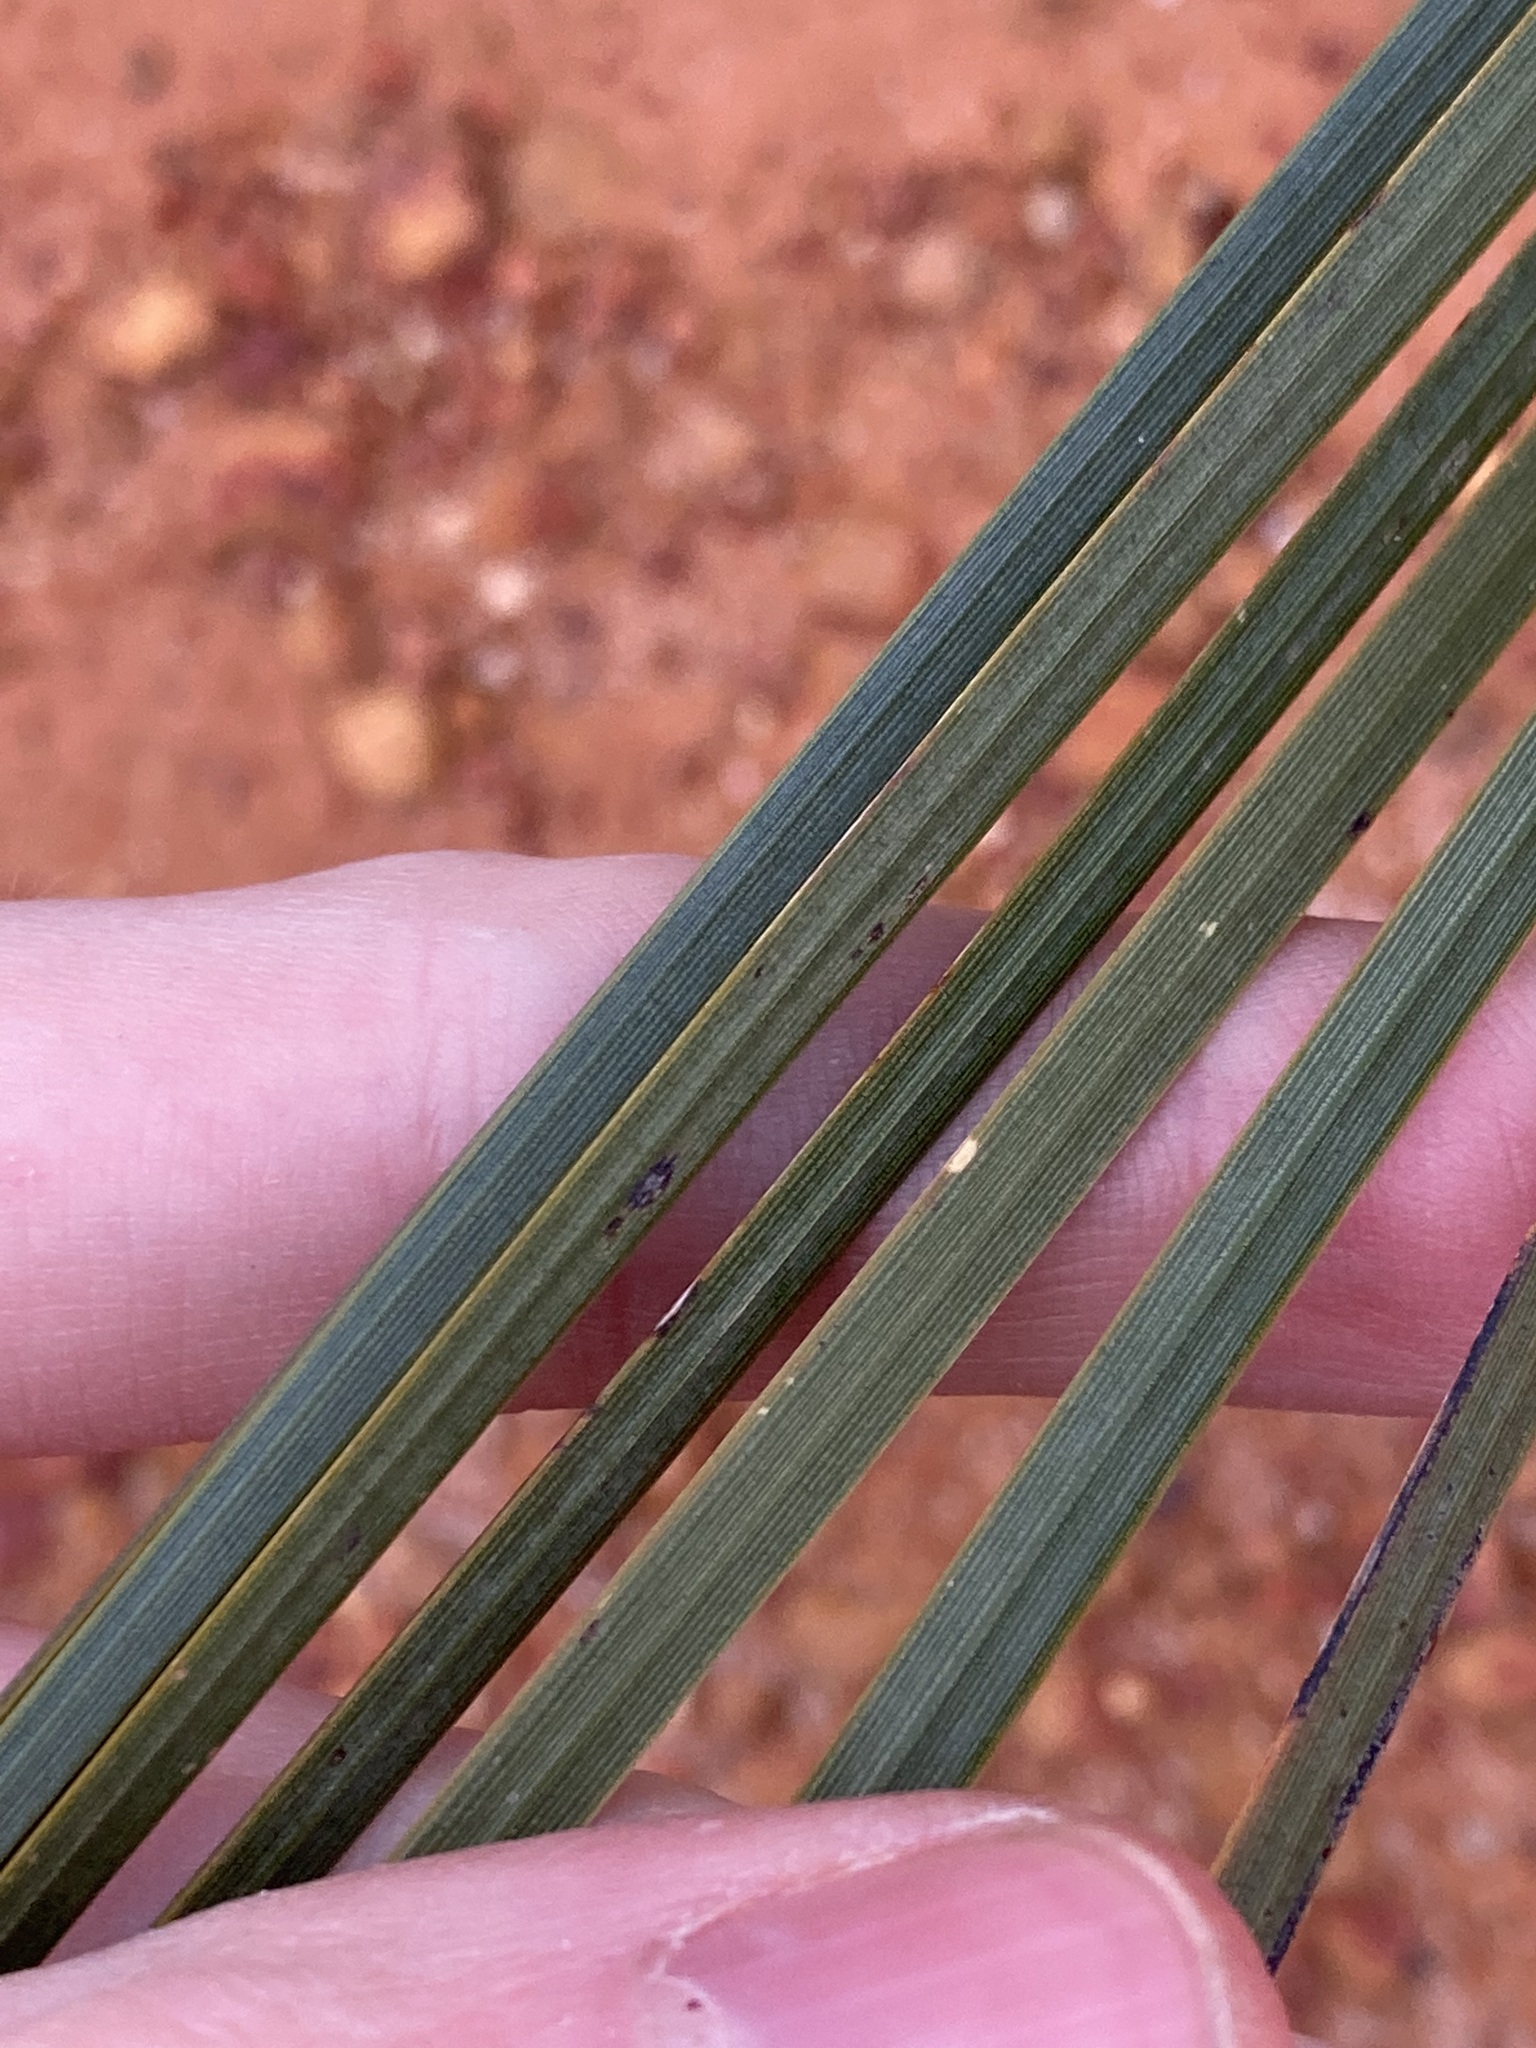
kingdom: Plantae
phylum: Tracheophyta
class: Liliopsida
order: Asparagales
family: Asphodelaceae
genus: Xanthorrhoea
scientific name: Xanthorrhoea drummondii
